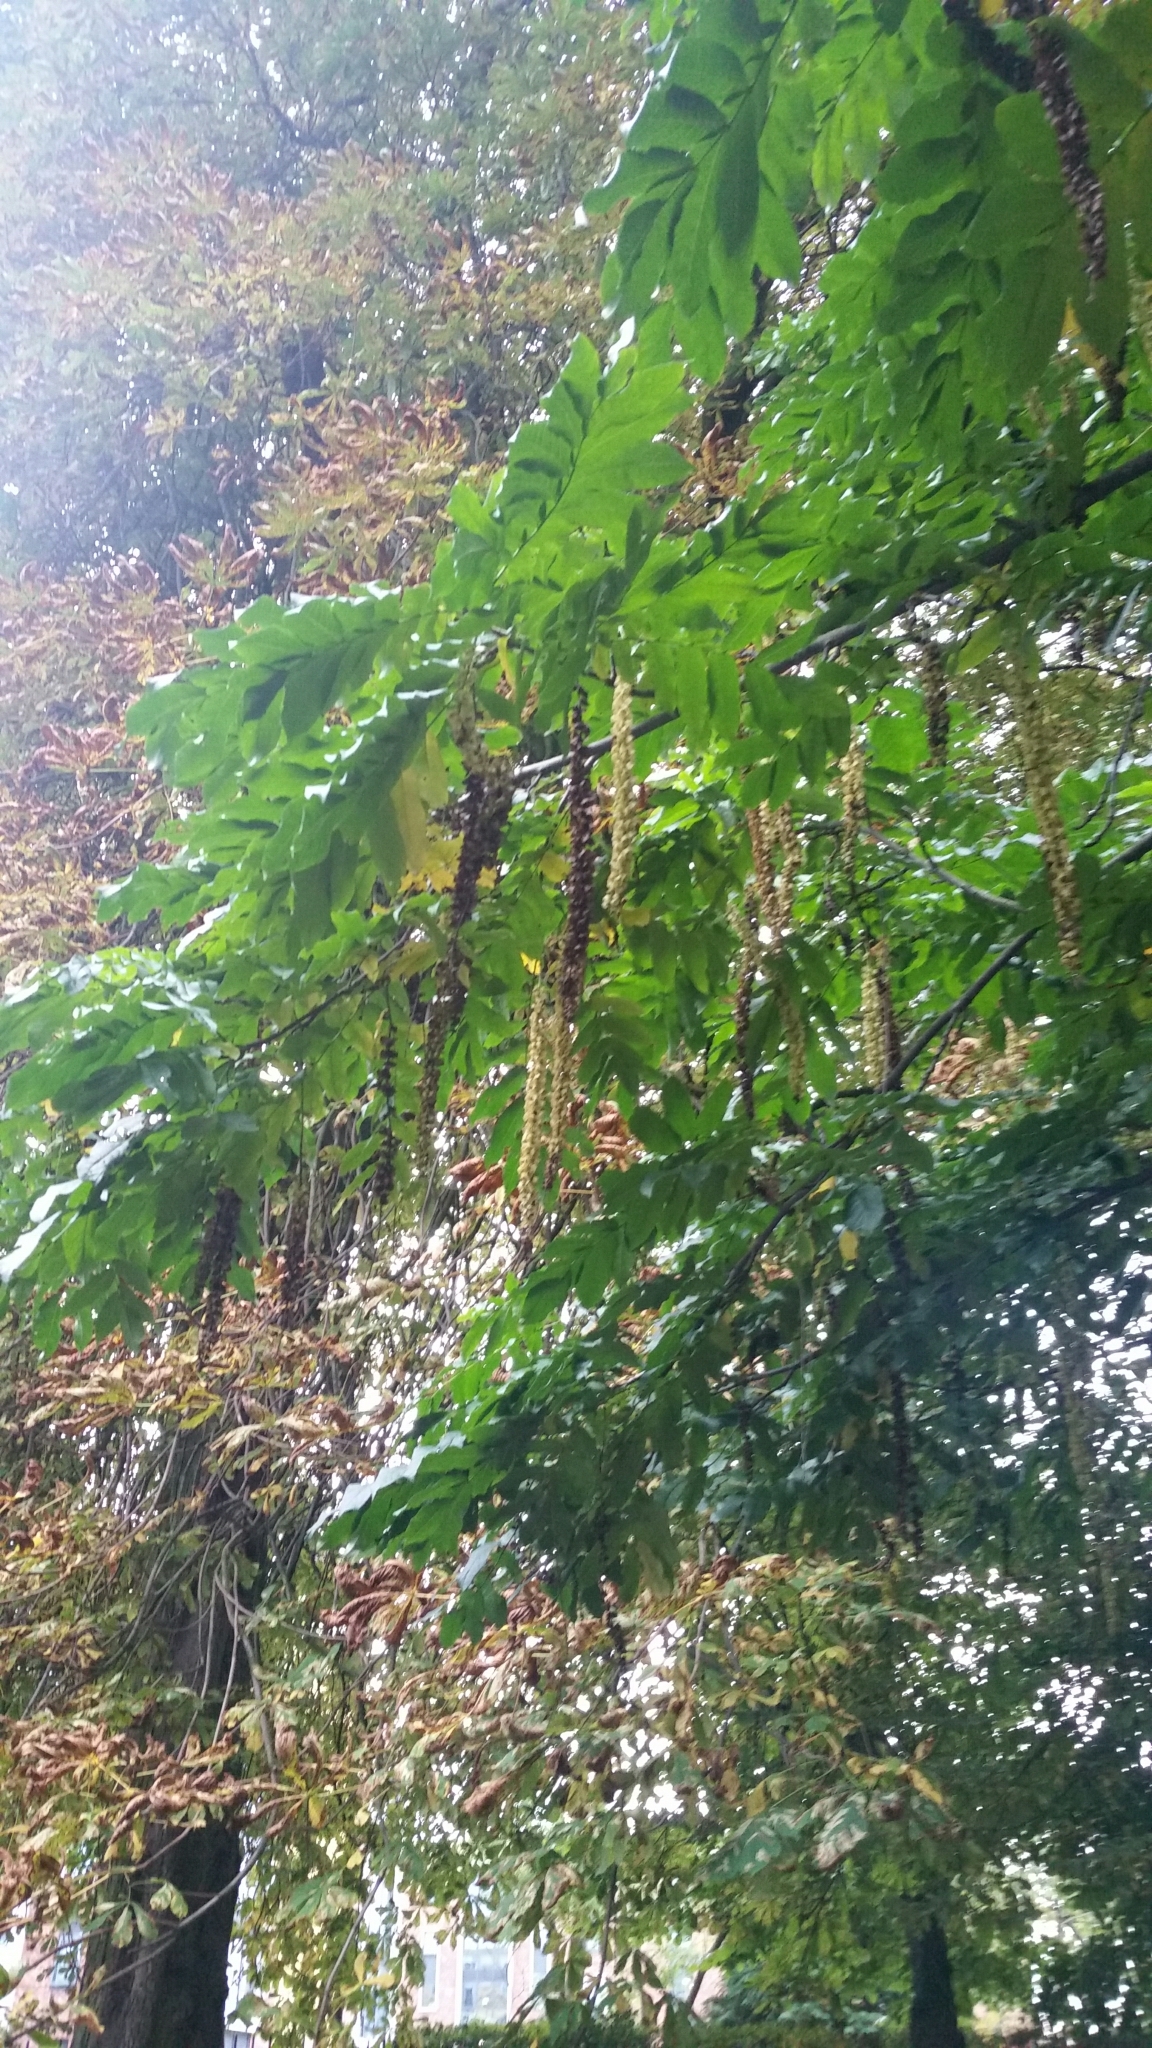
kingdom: Plantae
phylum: Tracheophyta
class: Magnoliopsida
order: Fagales
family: Juglandaceae
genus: Pterocarya
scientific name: Pterocarya fraxinifolia
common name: Caucasian wingnut
